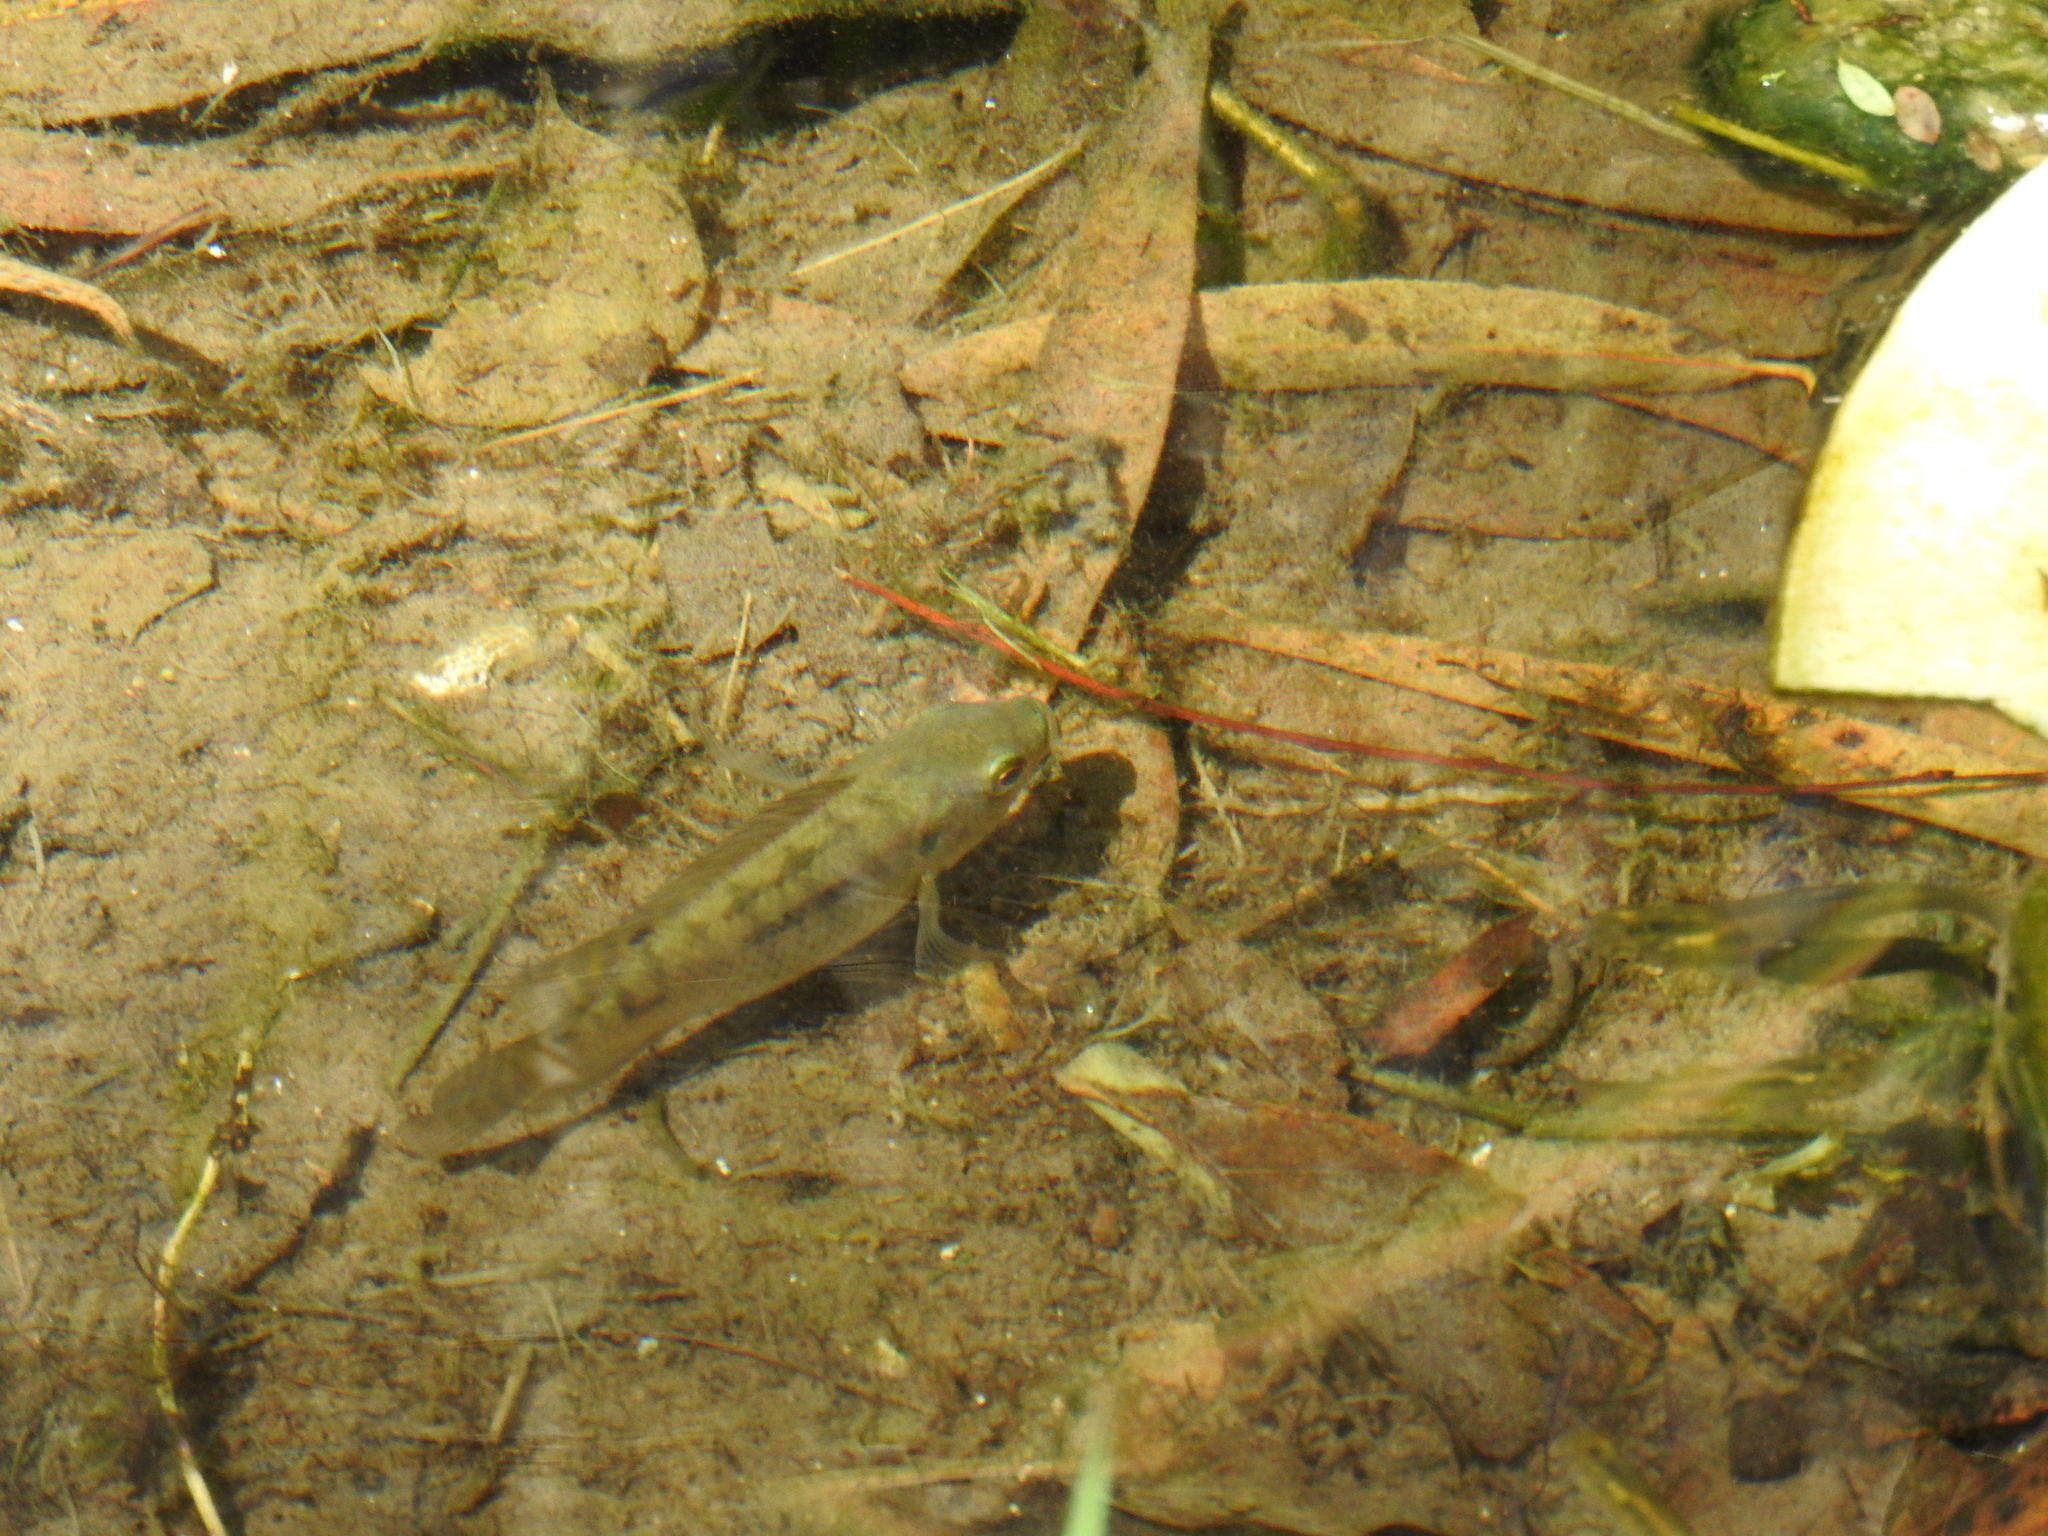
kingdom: Animalia
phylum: Chordata
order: Perciformes
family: Cichlidae
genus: Oreochromis
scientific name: Oreochromis mossambicus
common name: Mozambique tilapia
